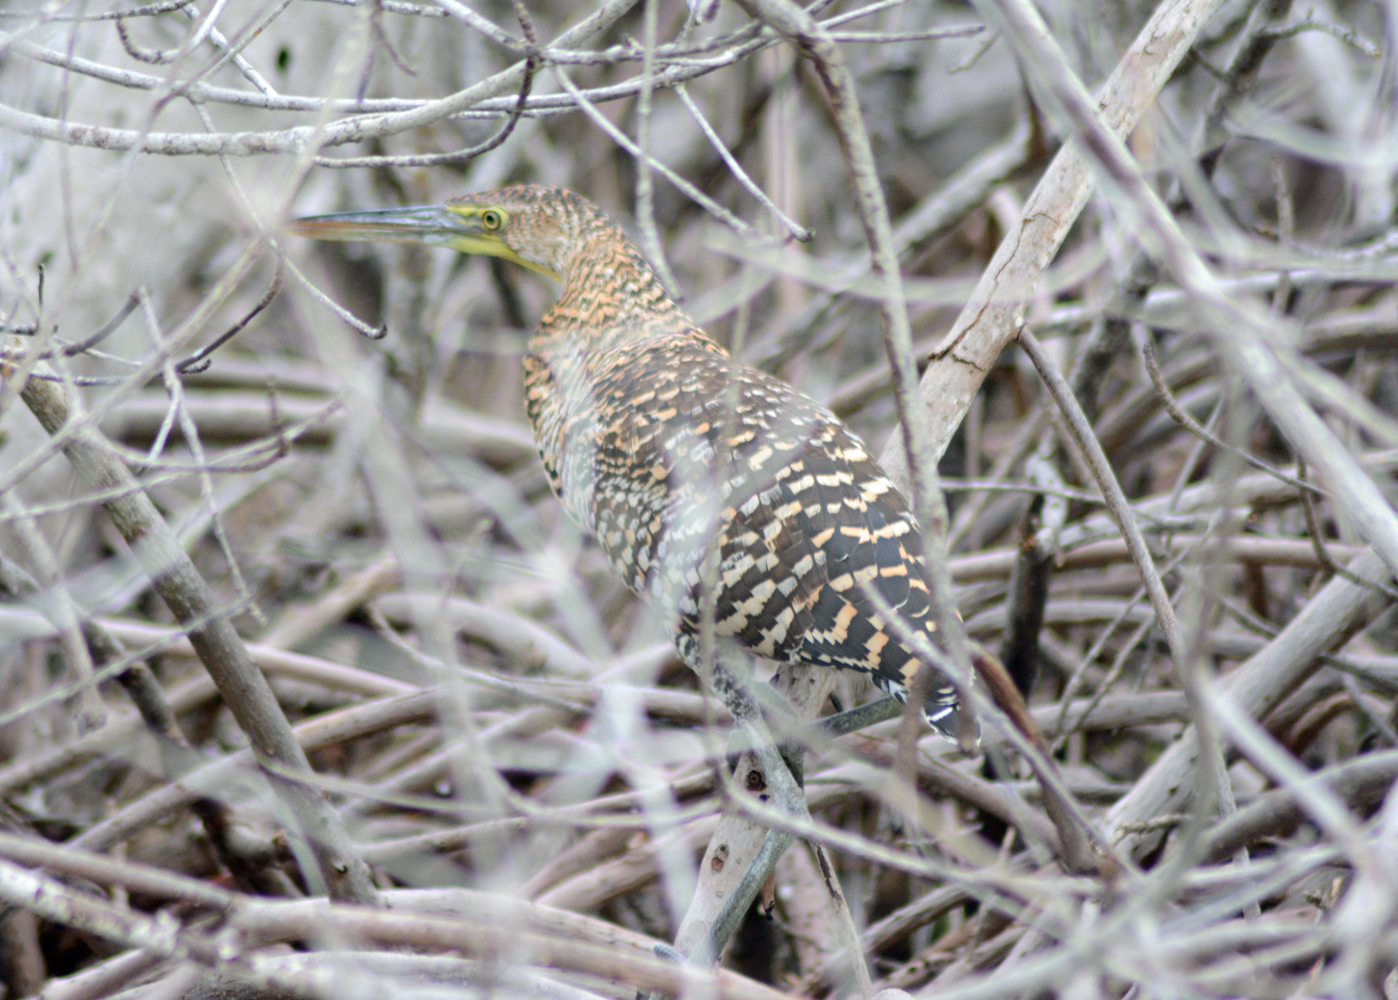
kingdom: Animalia
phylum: Chordata
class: Aves
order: Pelecaniformes
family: Ardeidae
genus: Tigrisoma
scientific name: Tigrisoma mexicanum
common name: Bare-throated tiger-heron
